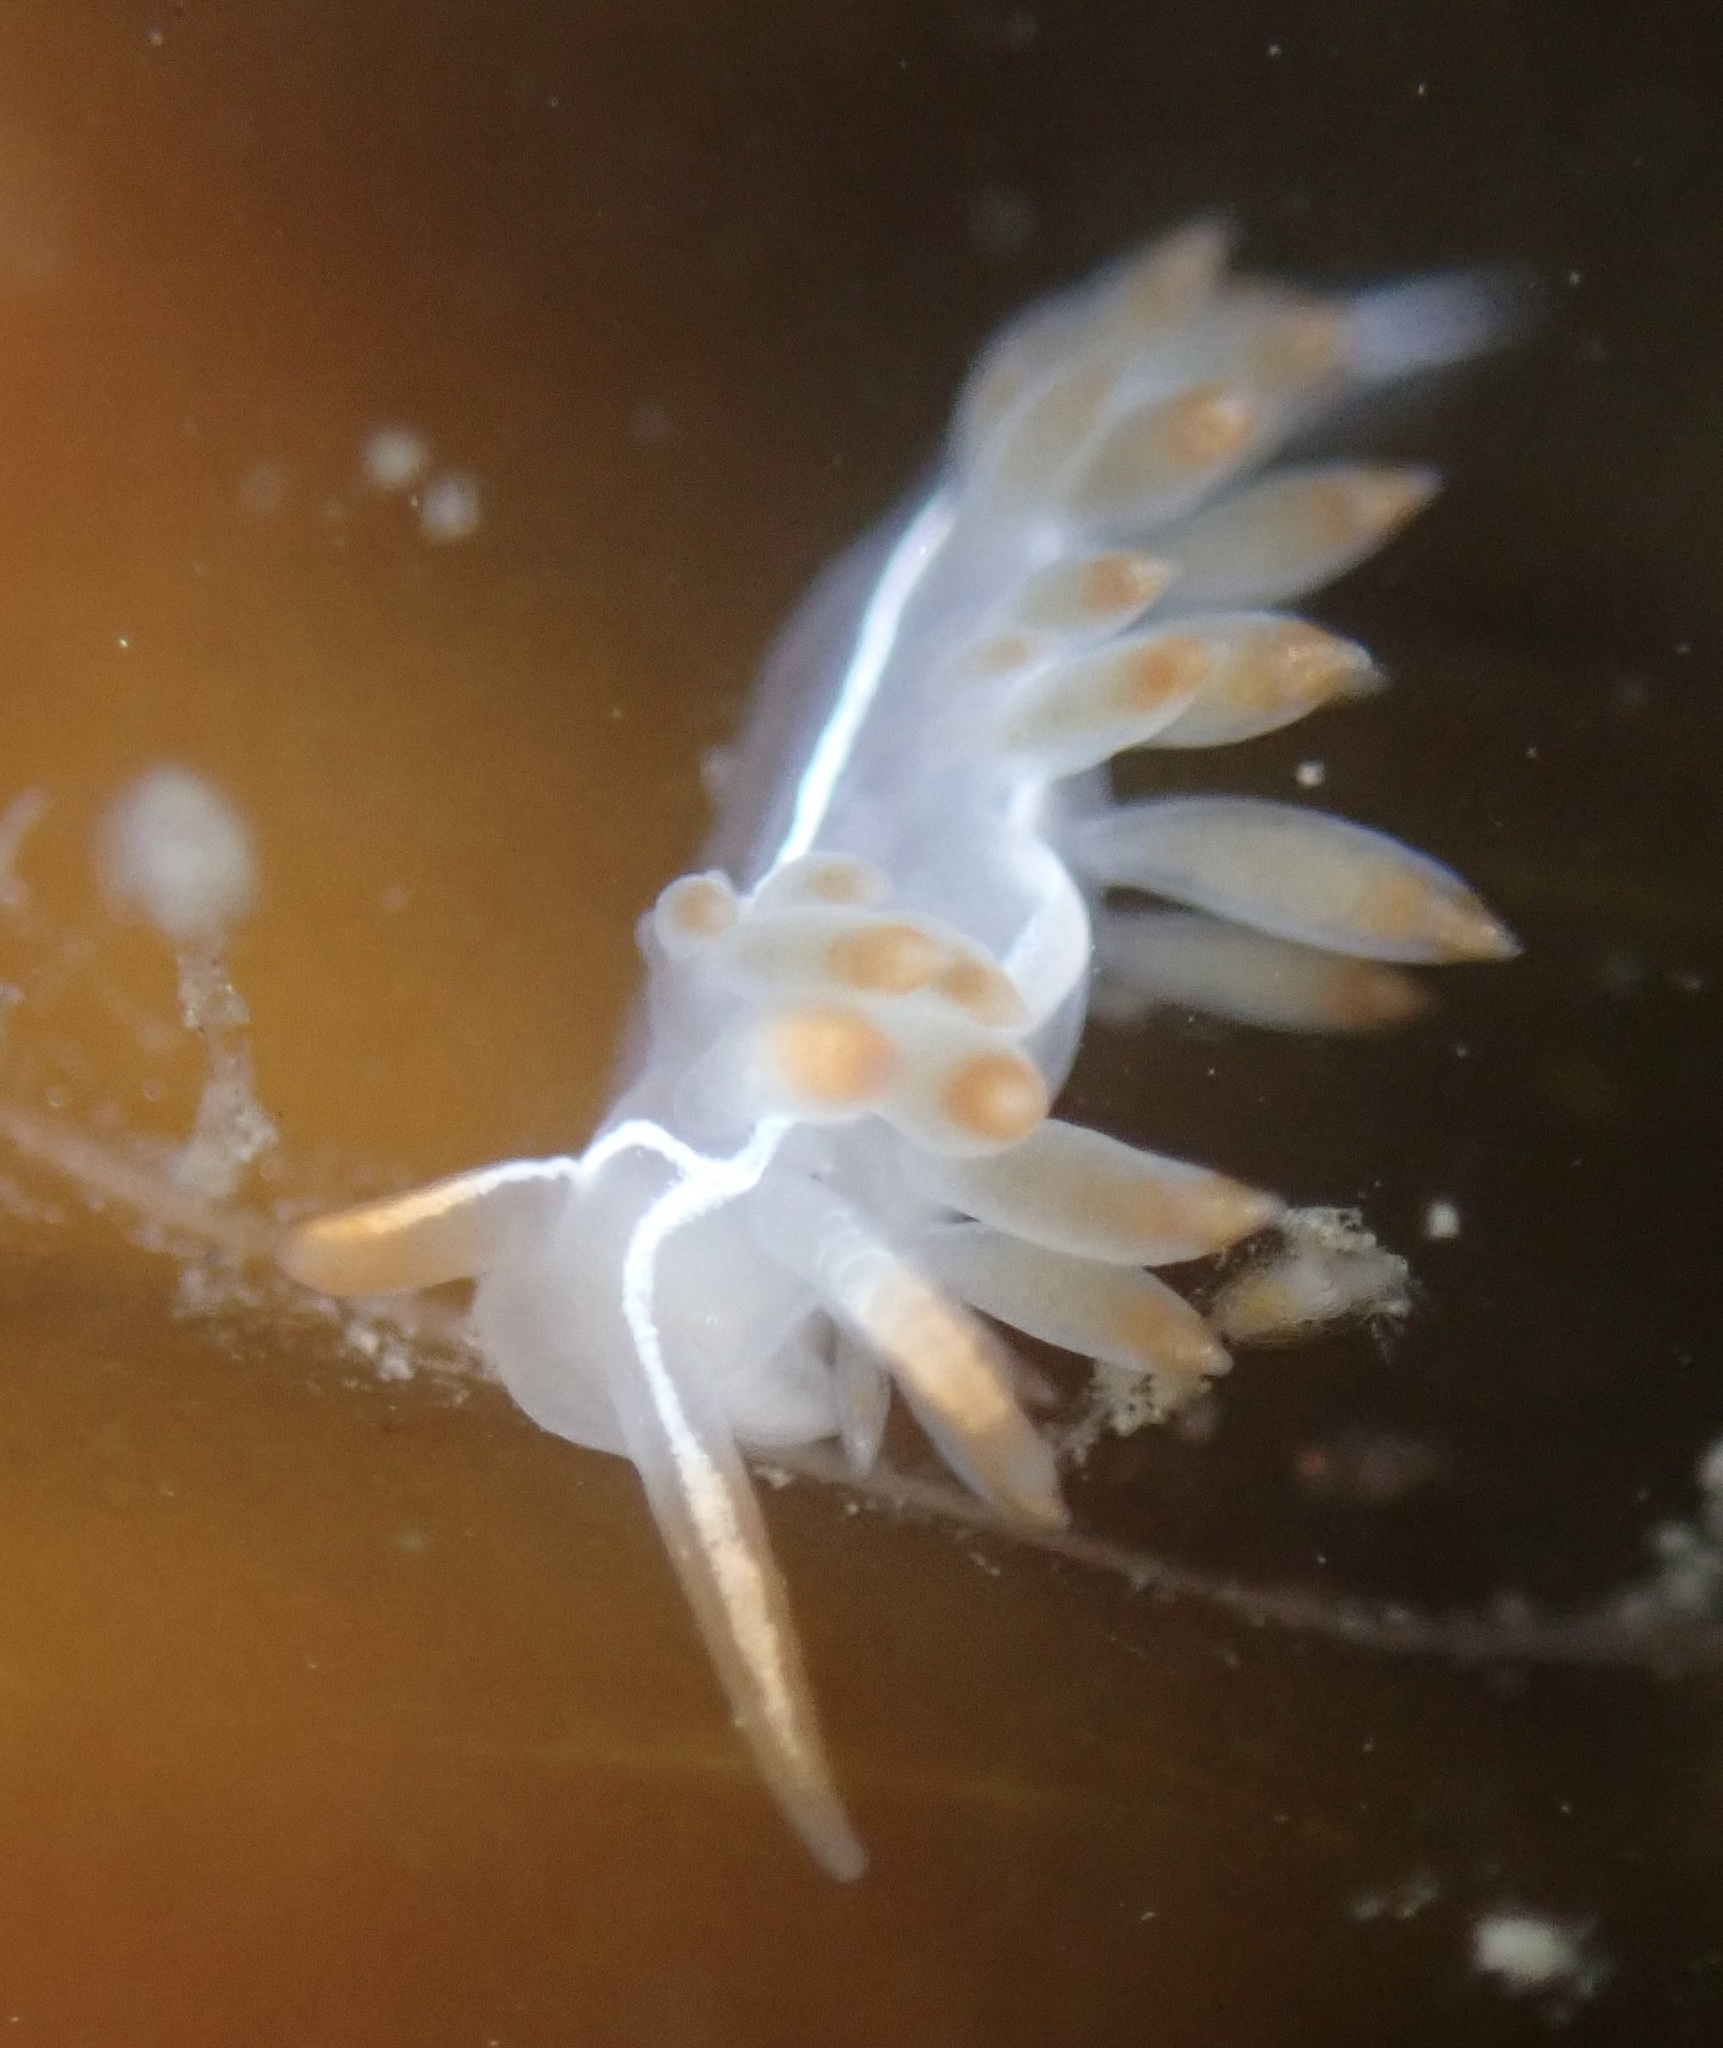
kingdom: Animalia
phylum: Mollusca
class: Gastropoda
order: Nudibranchia
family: Coryphellidae
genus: Coryphella
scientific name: Coryphella trilineata
